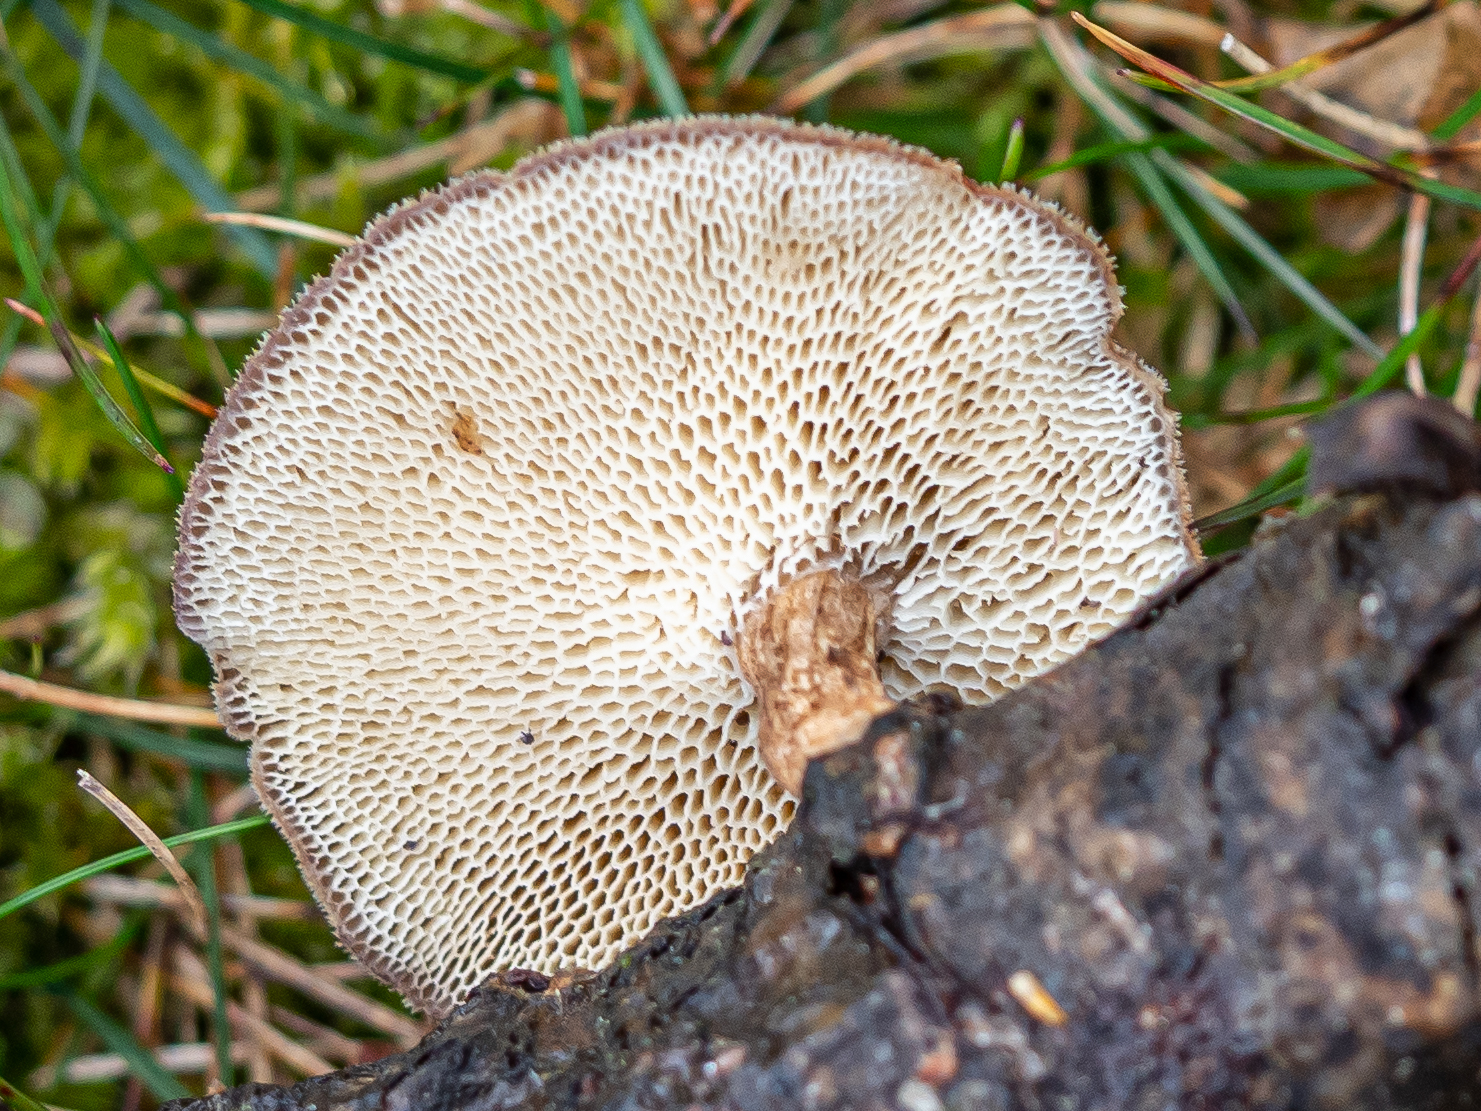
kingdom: Fungi
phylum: Basidiomycota
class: Agaricomycetes
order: Polyporales
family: Polyporaceae
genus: Lentinus
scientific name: Lentinus arcularius
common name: Spring polypore
